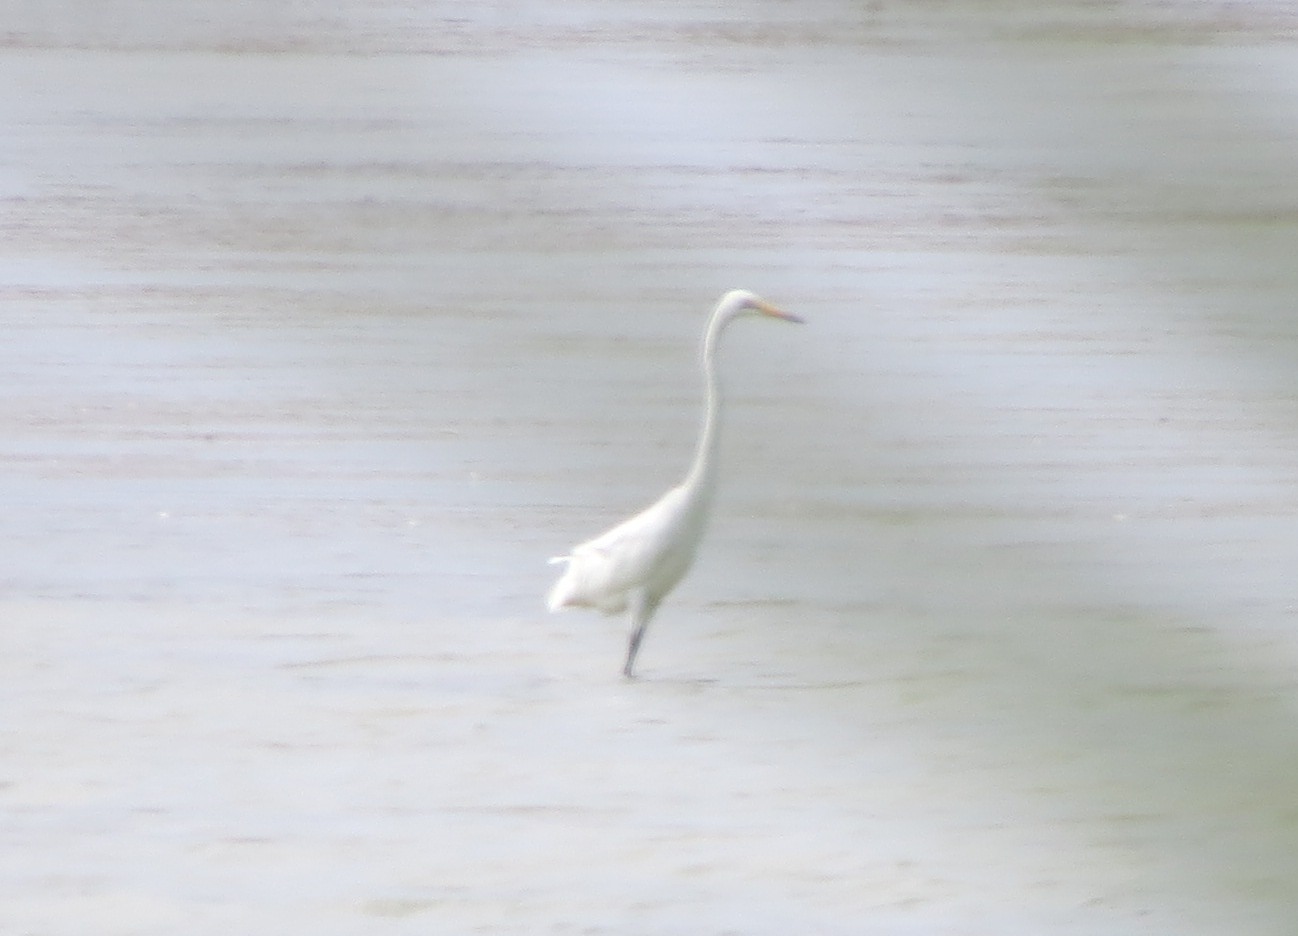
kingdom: Animalia
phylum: Chordata
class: Aves
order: Pelecaniformes
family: Ardeidae
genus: Ardea
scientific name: Ardea alba
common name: Great egret
